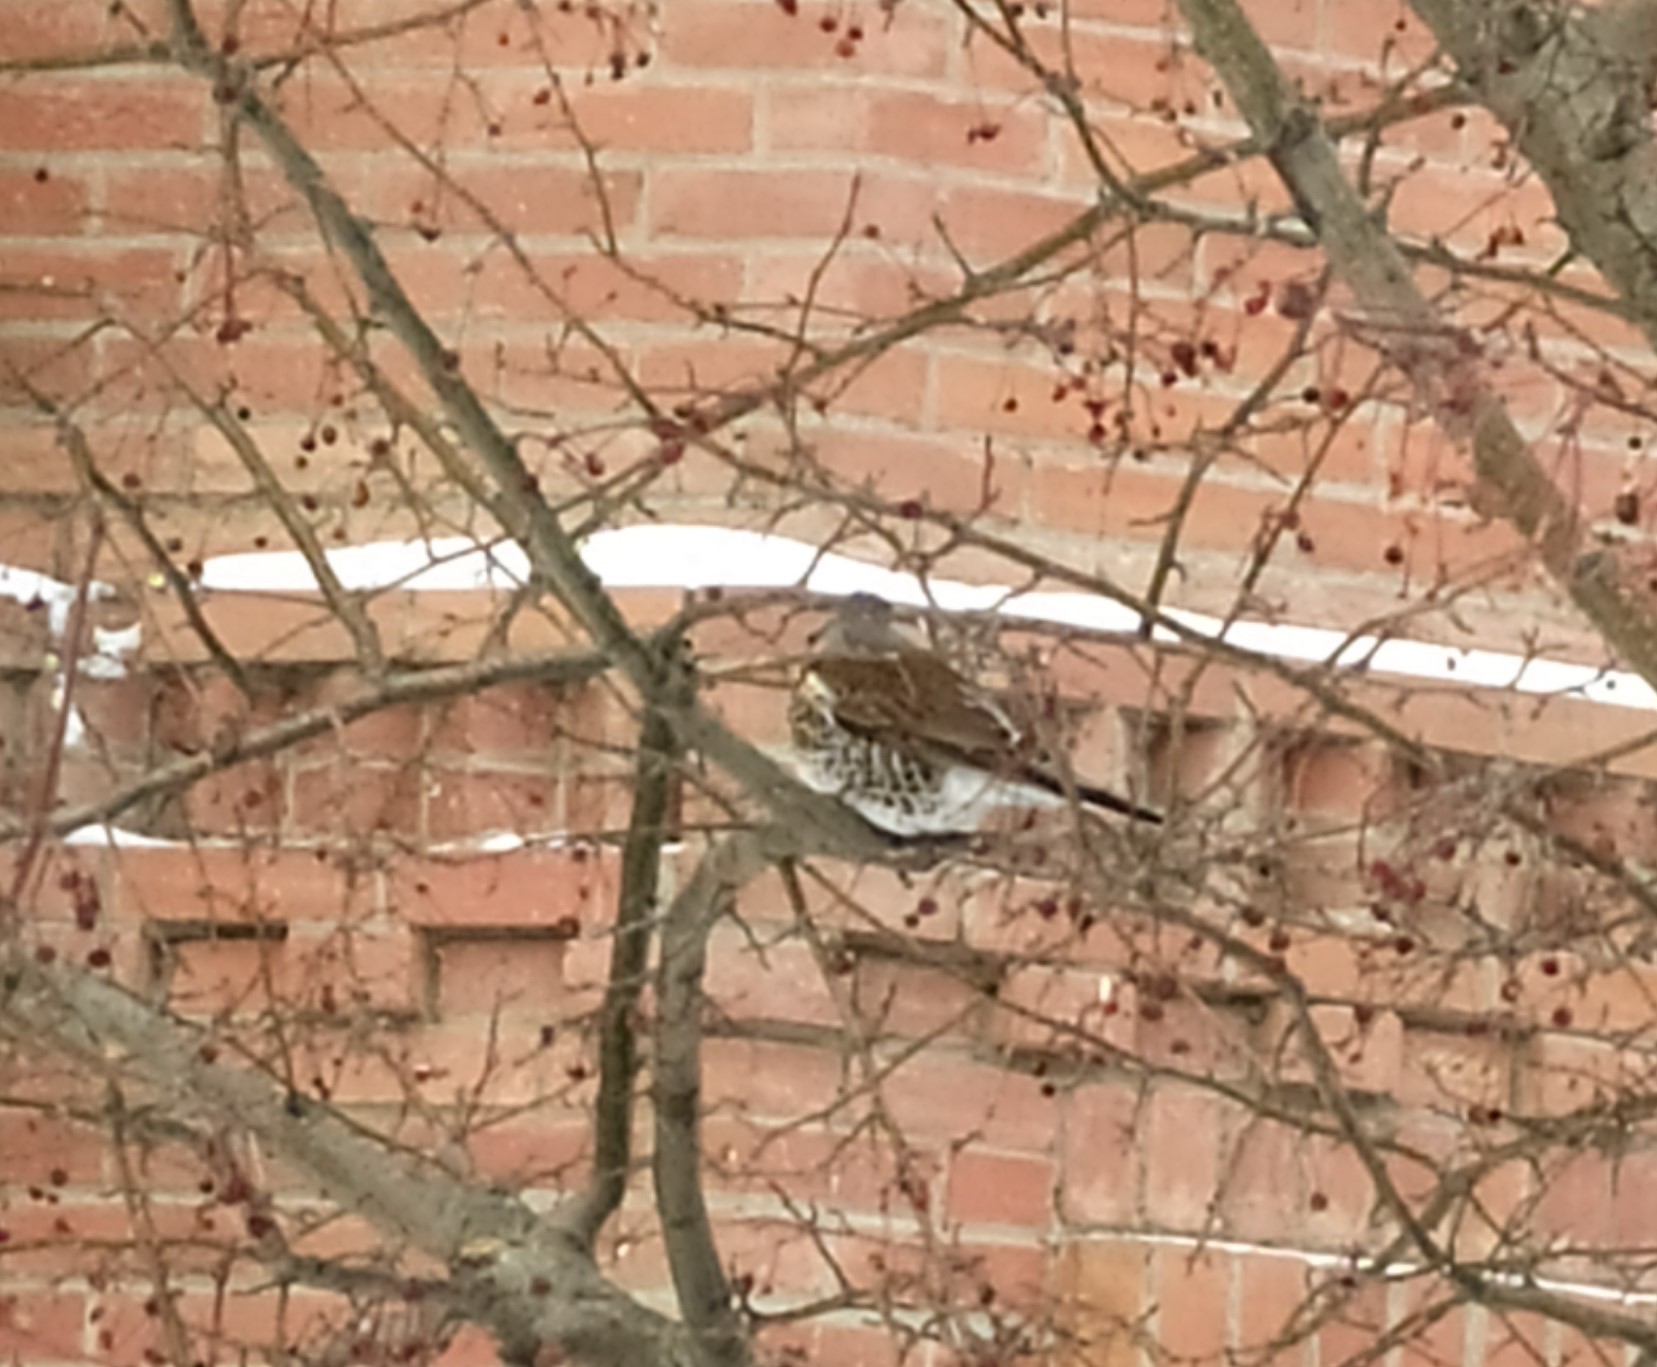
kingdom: Animalia
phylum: Chordata
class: Aves
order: Passeriformes
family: Turdidae
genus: Turdus
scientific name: Turdus pilaris
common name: Fieldfare
